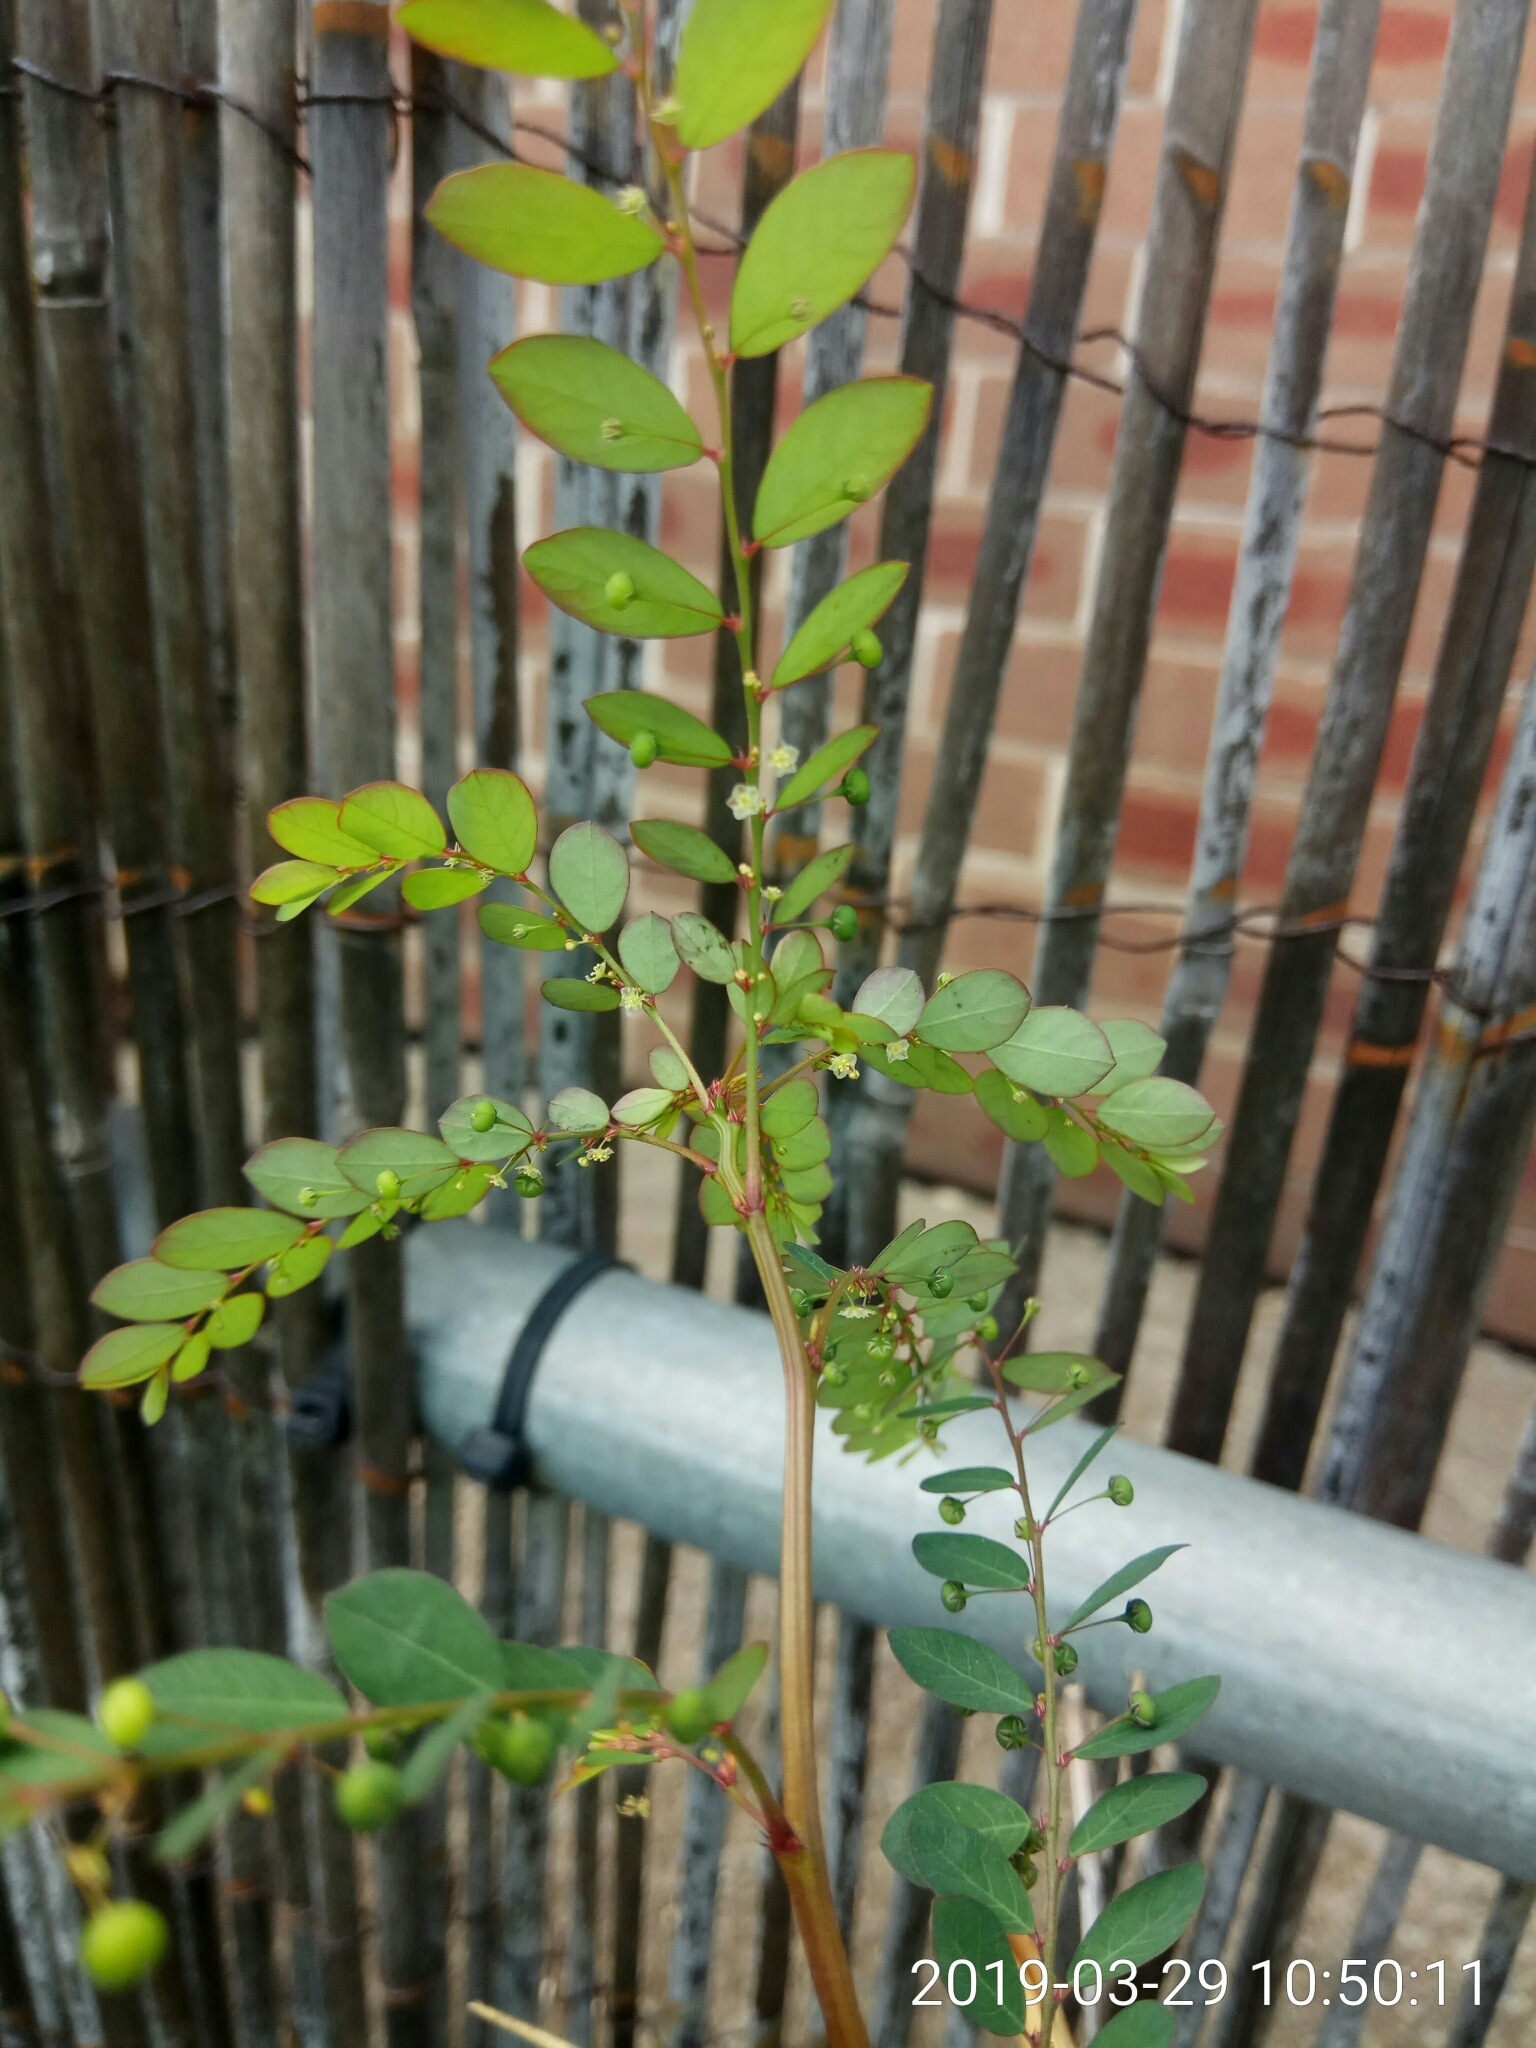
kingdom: Plantae
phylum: Tracheophyta
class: Magnoliopsida
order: Malpighiales
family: Phyllanthaceae
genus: Phyllanthus
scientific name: Phyllanthus tenellus
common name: Mascarene island leaf-flower
